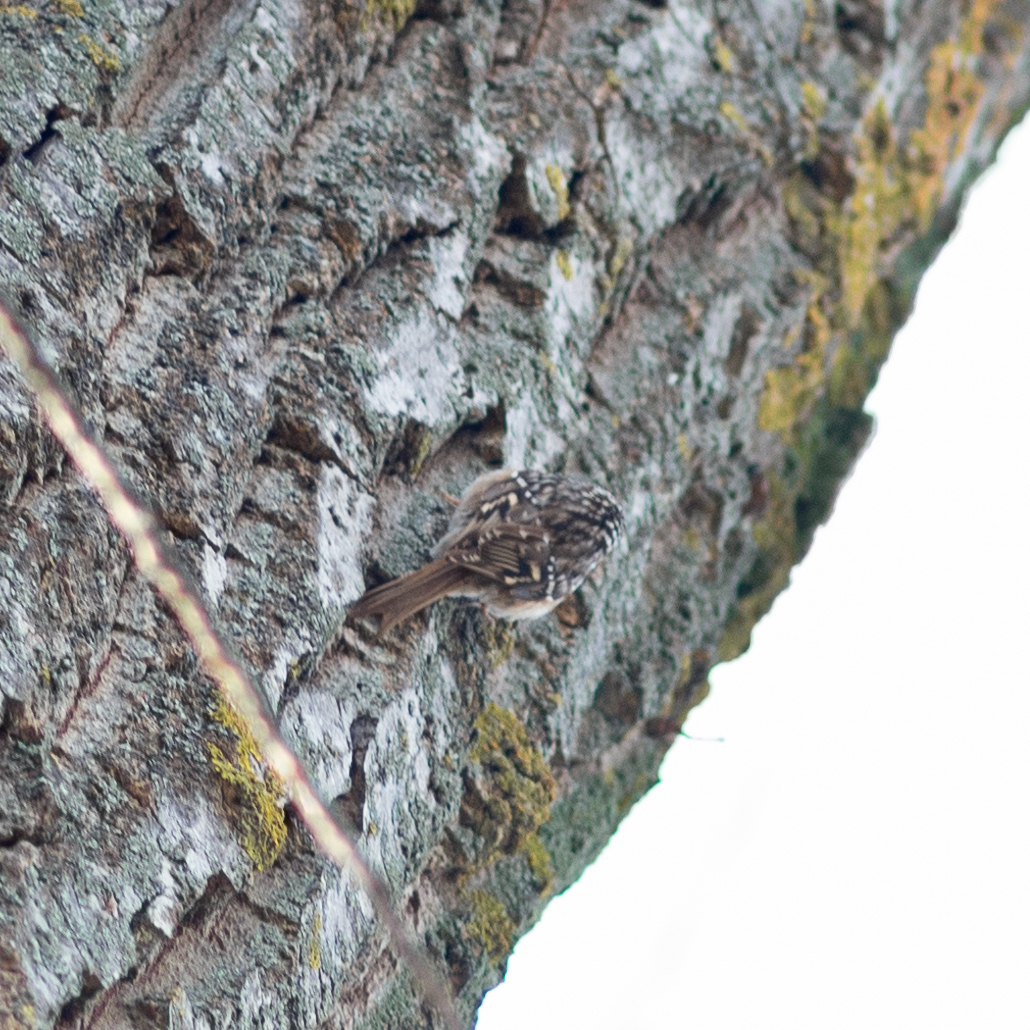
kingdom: Animalia
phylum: Chordata
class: Aves
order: Passeriformes
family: Certhiidae
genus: Certhia
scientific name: Certhia brachydactyla
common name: Short-toed treecreeper
